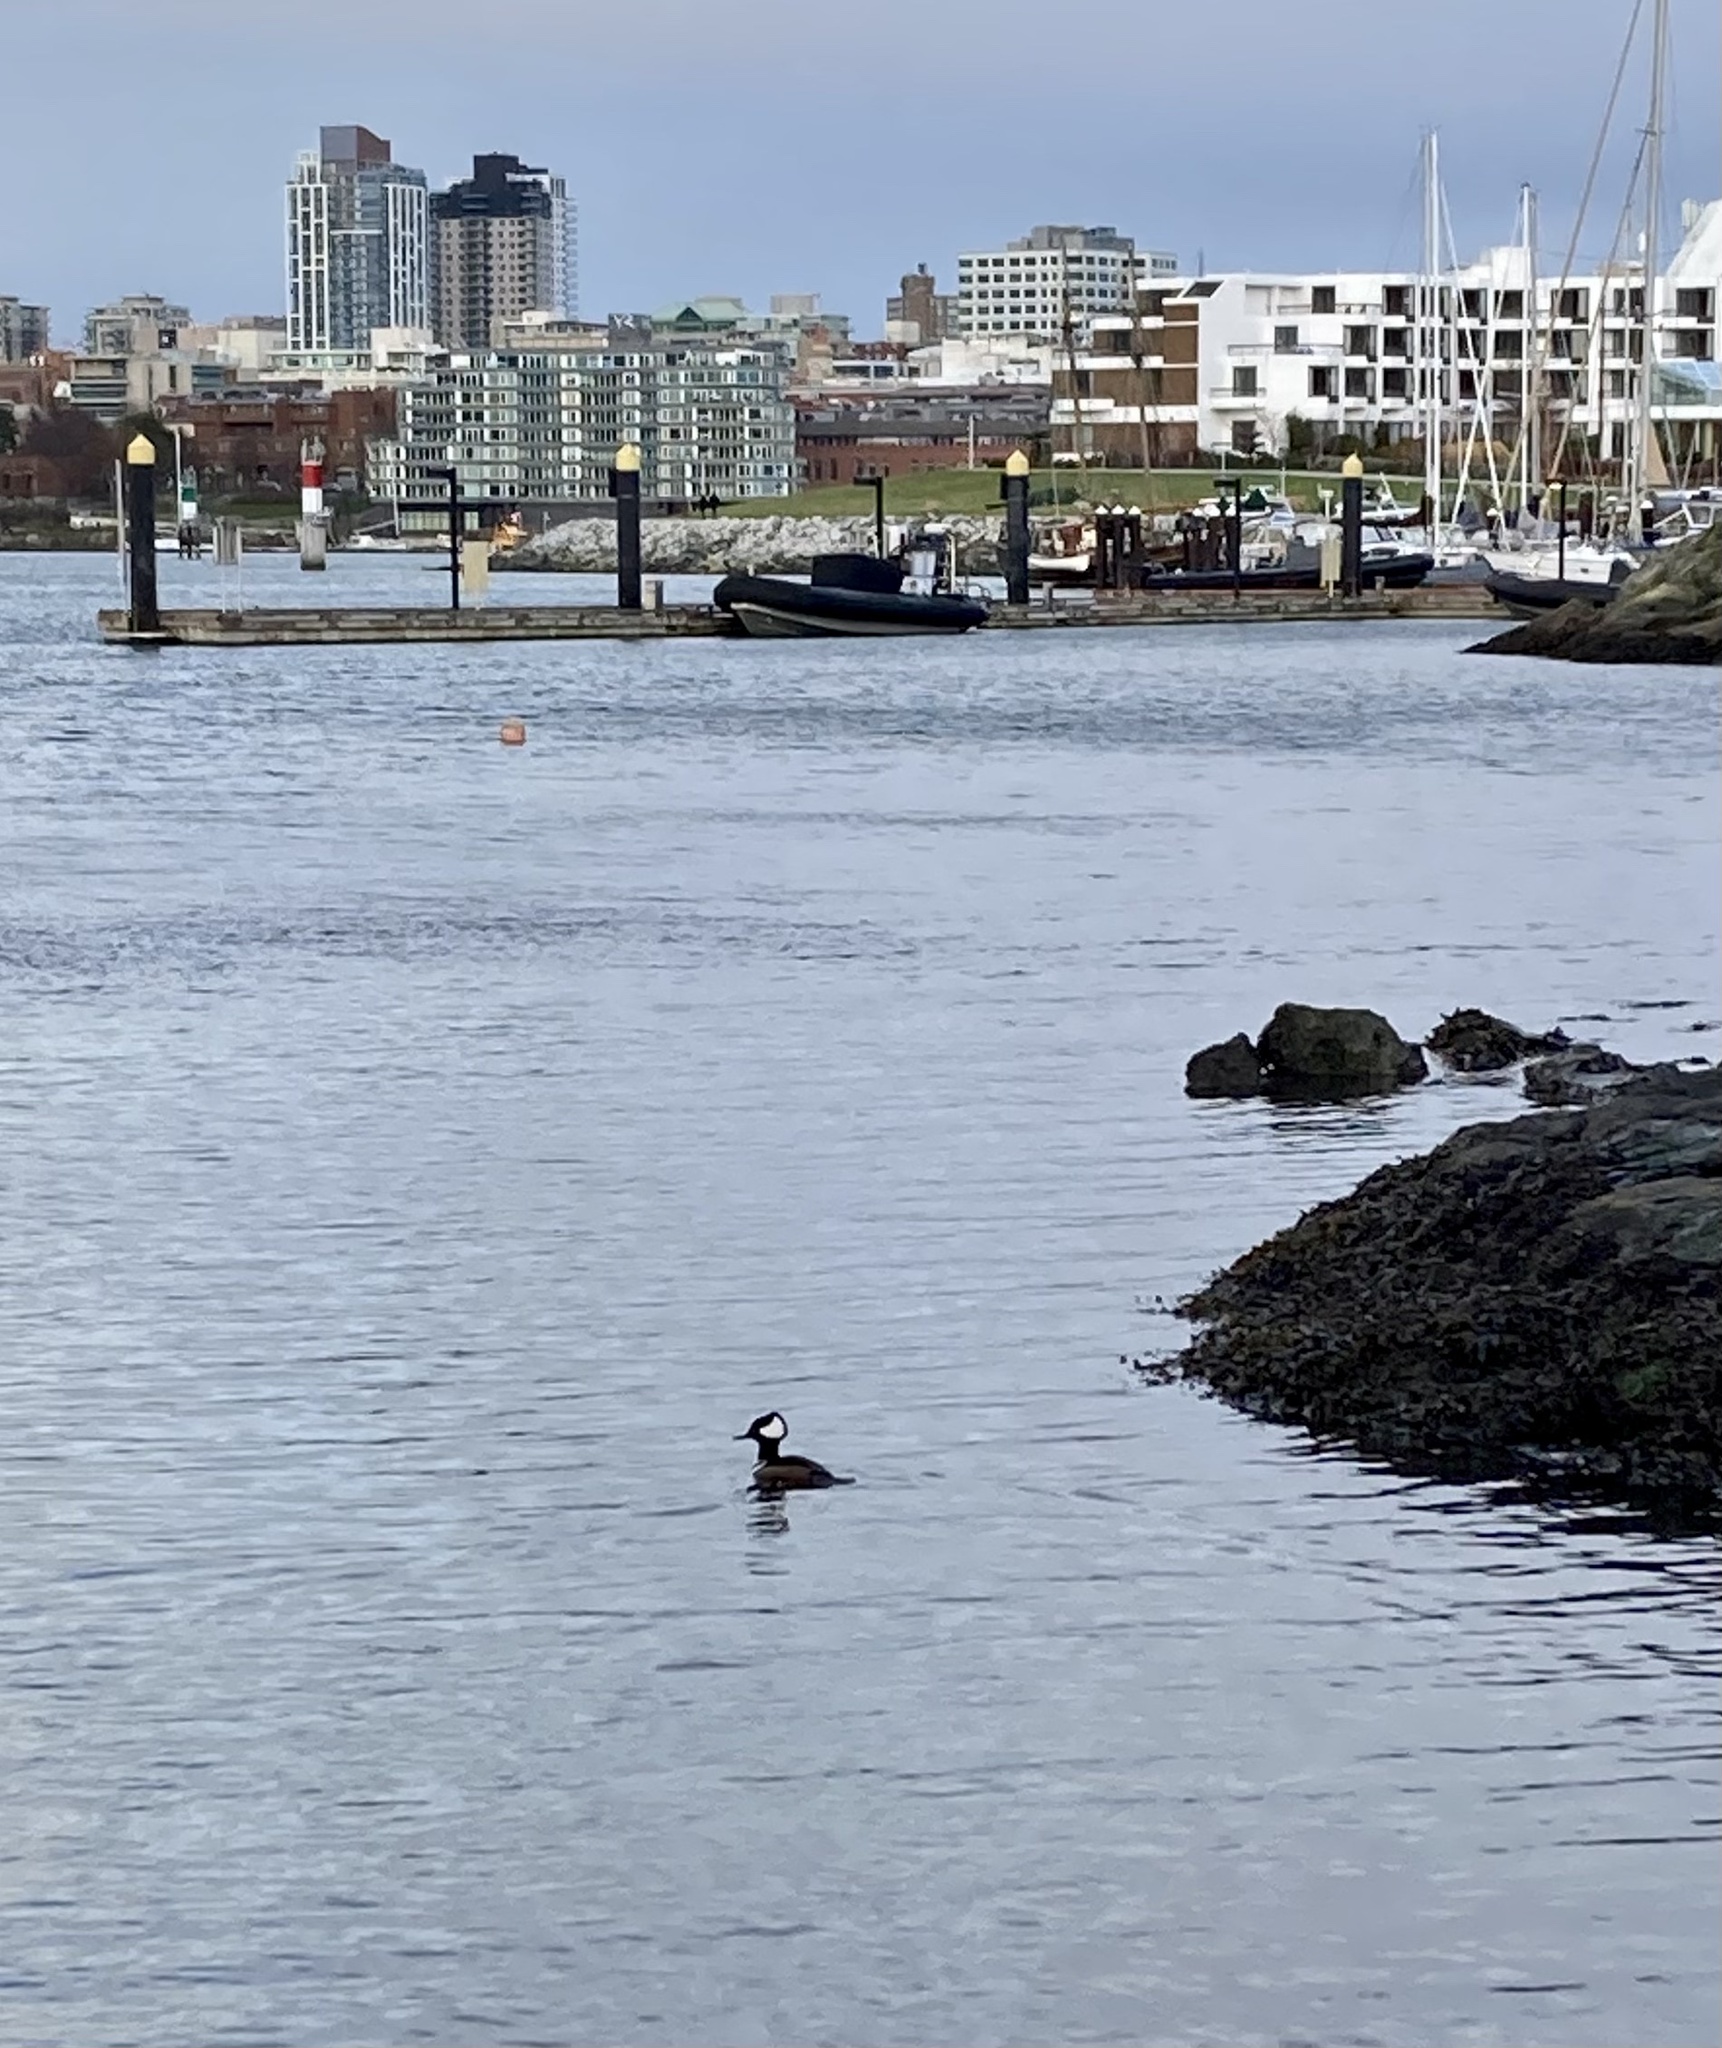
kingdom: Animalia
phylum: Chordata
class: Aves
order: Anseriformes
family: Anatidae
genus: Lophodytes
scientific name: Lophodytes cucullatus
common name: Hooded merganser
